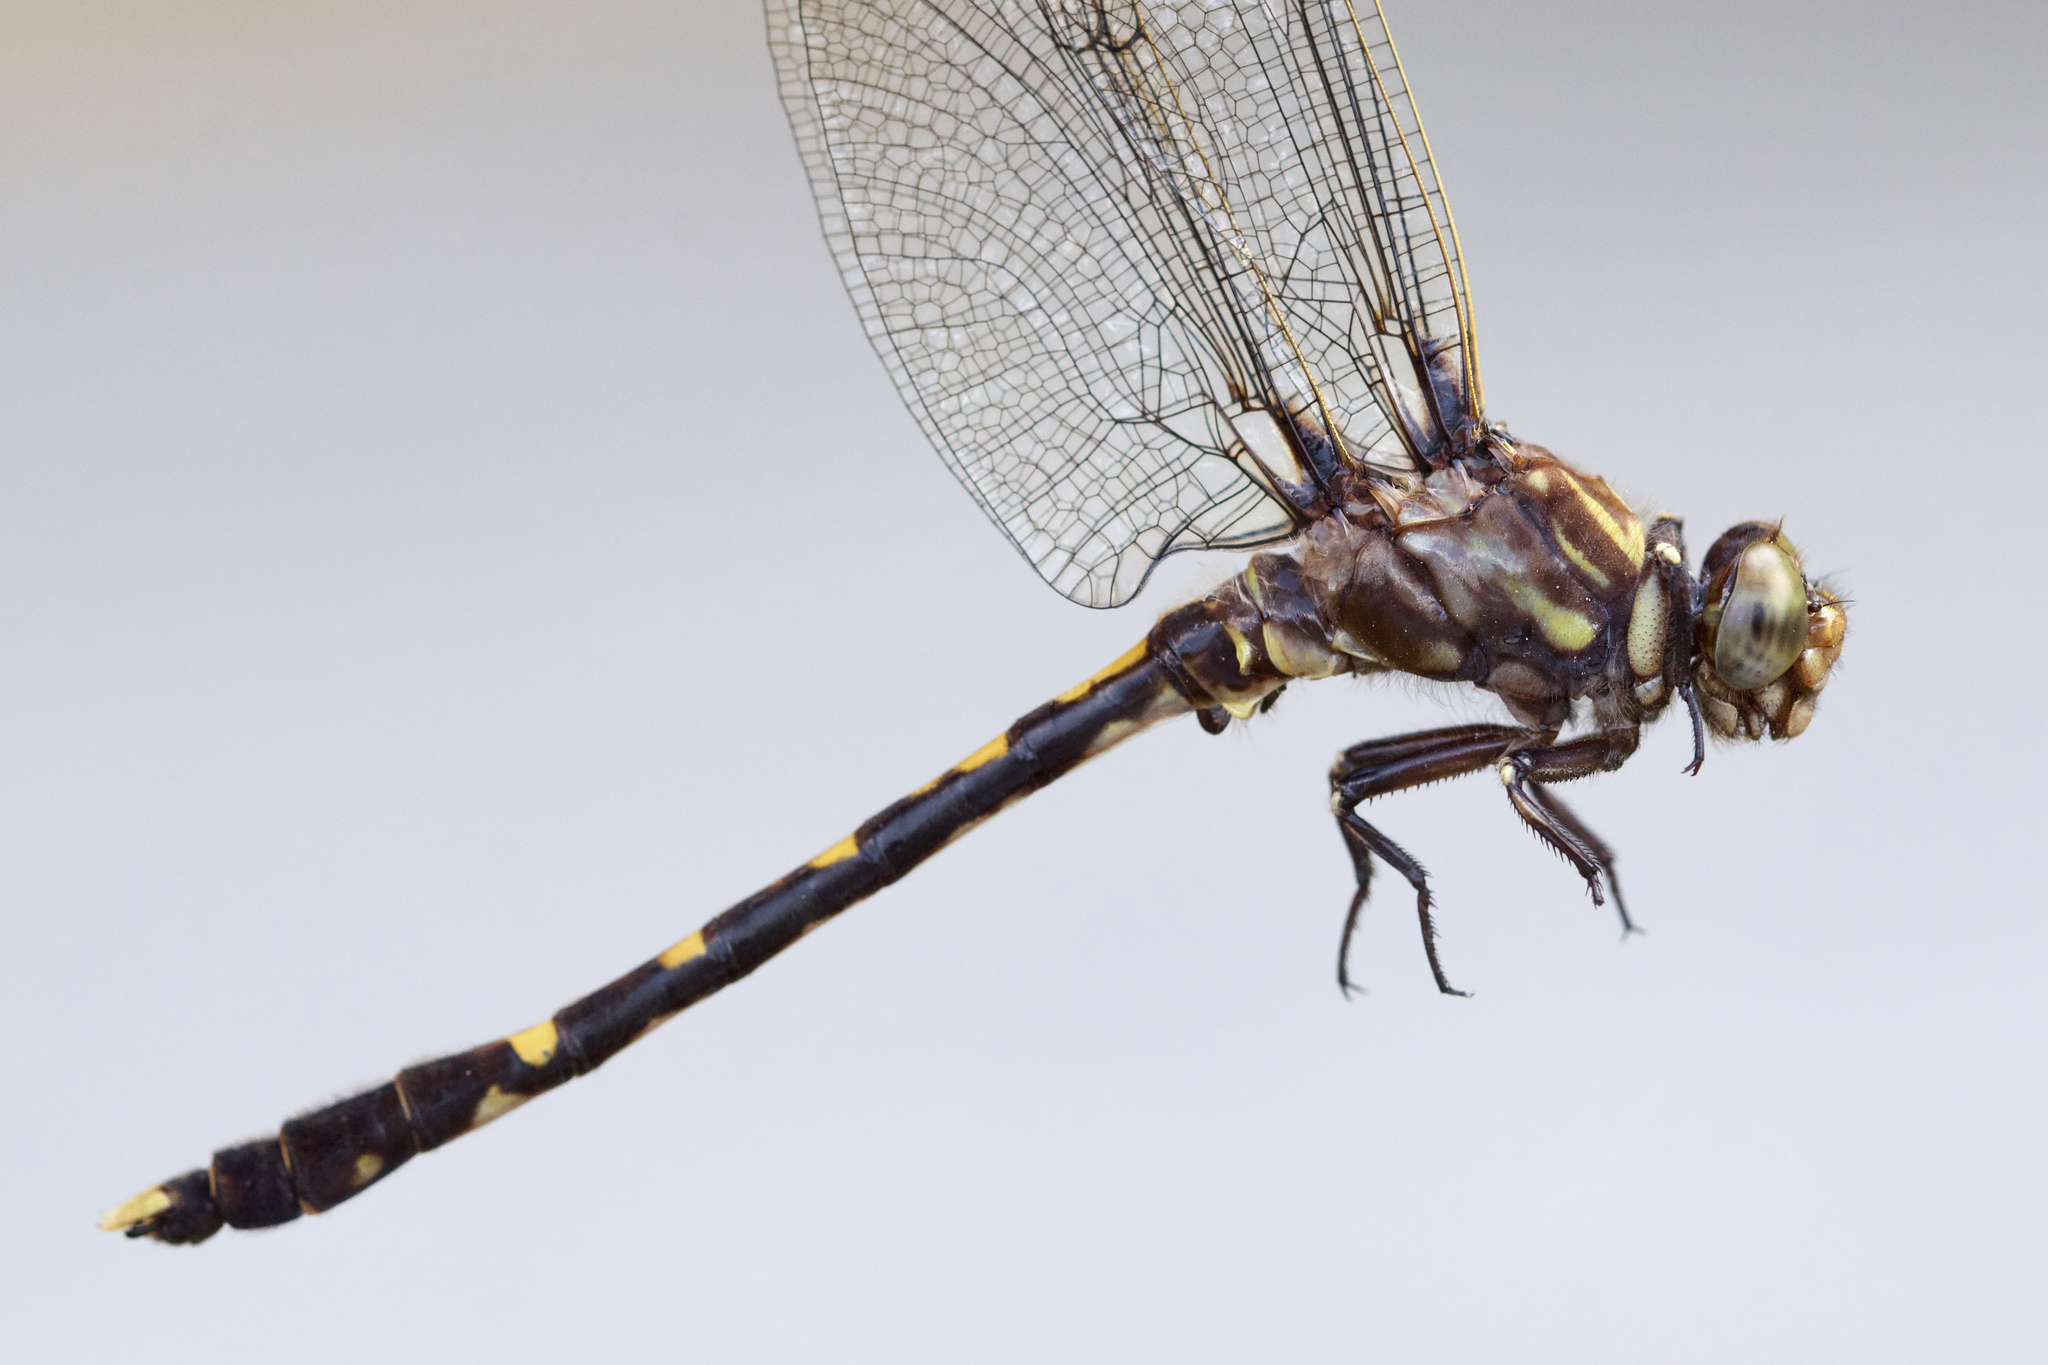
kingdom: Animalia
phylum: Arthropoda
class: Insecta
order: Odonata
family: Gomphidae
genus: Progomphus
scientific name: Progomphus obscurus
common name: Common sanddragon
